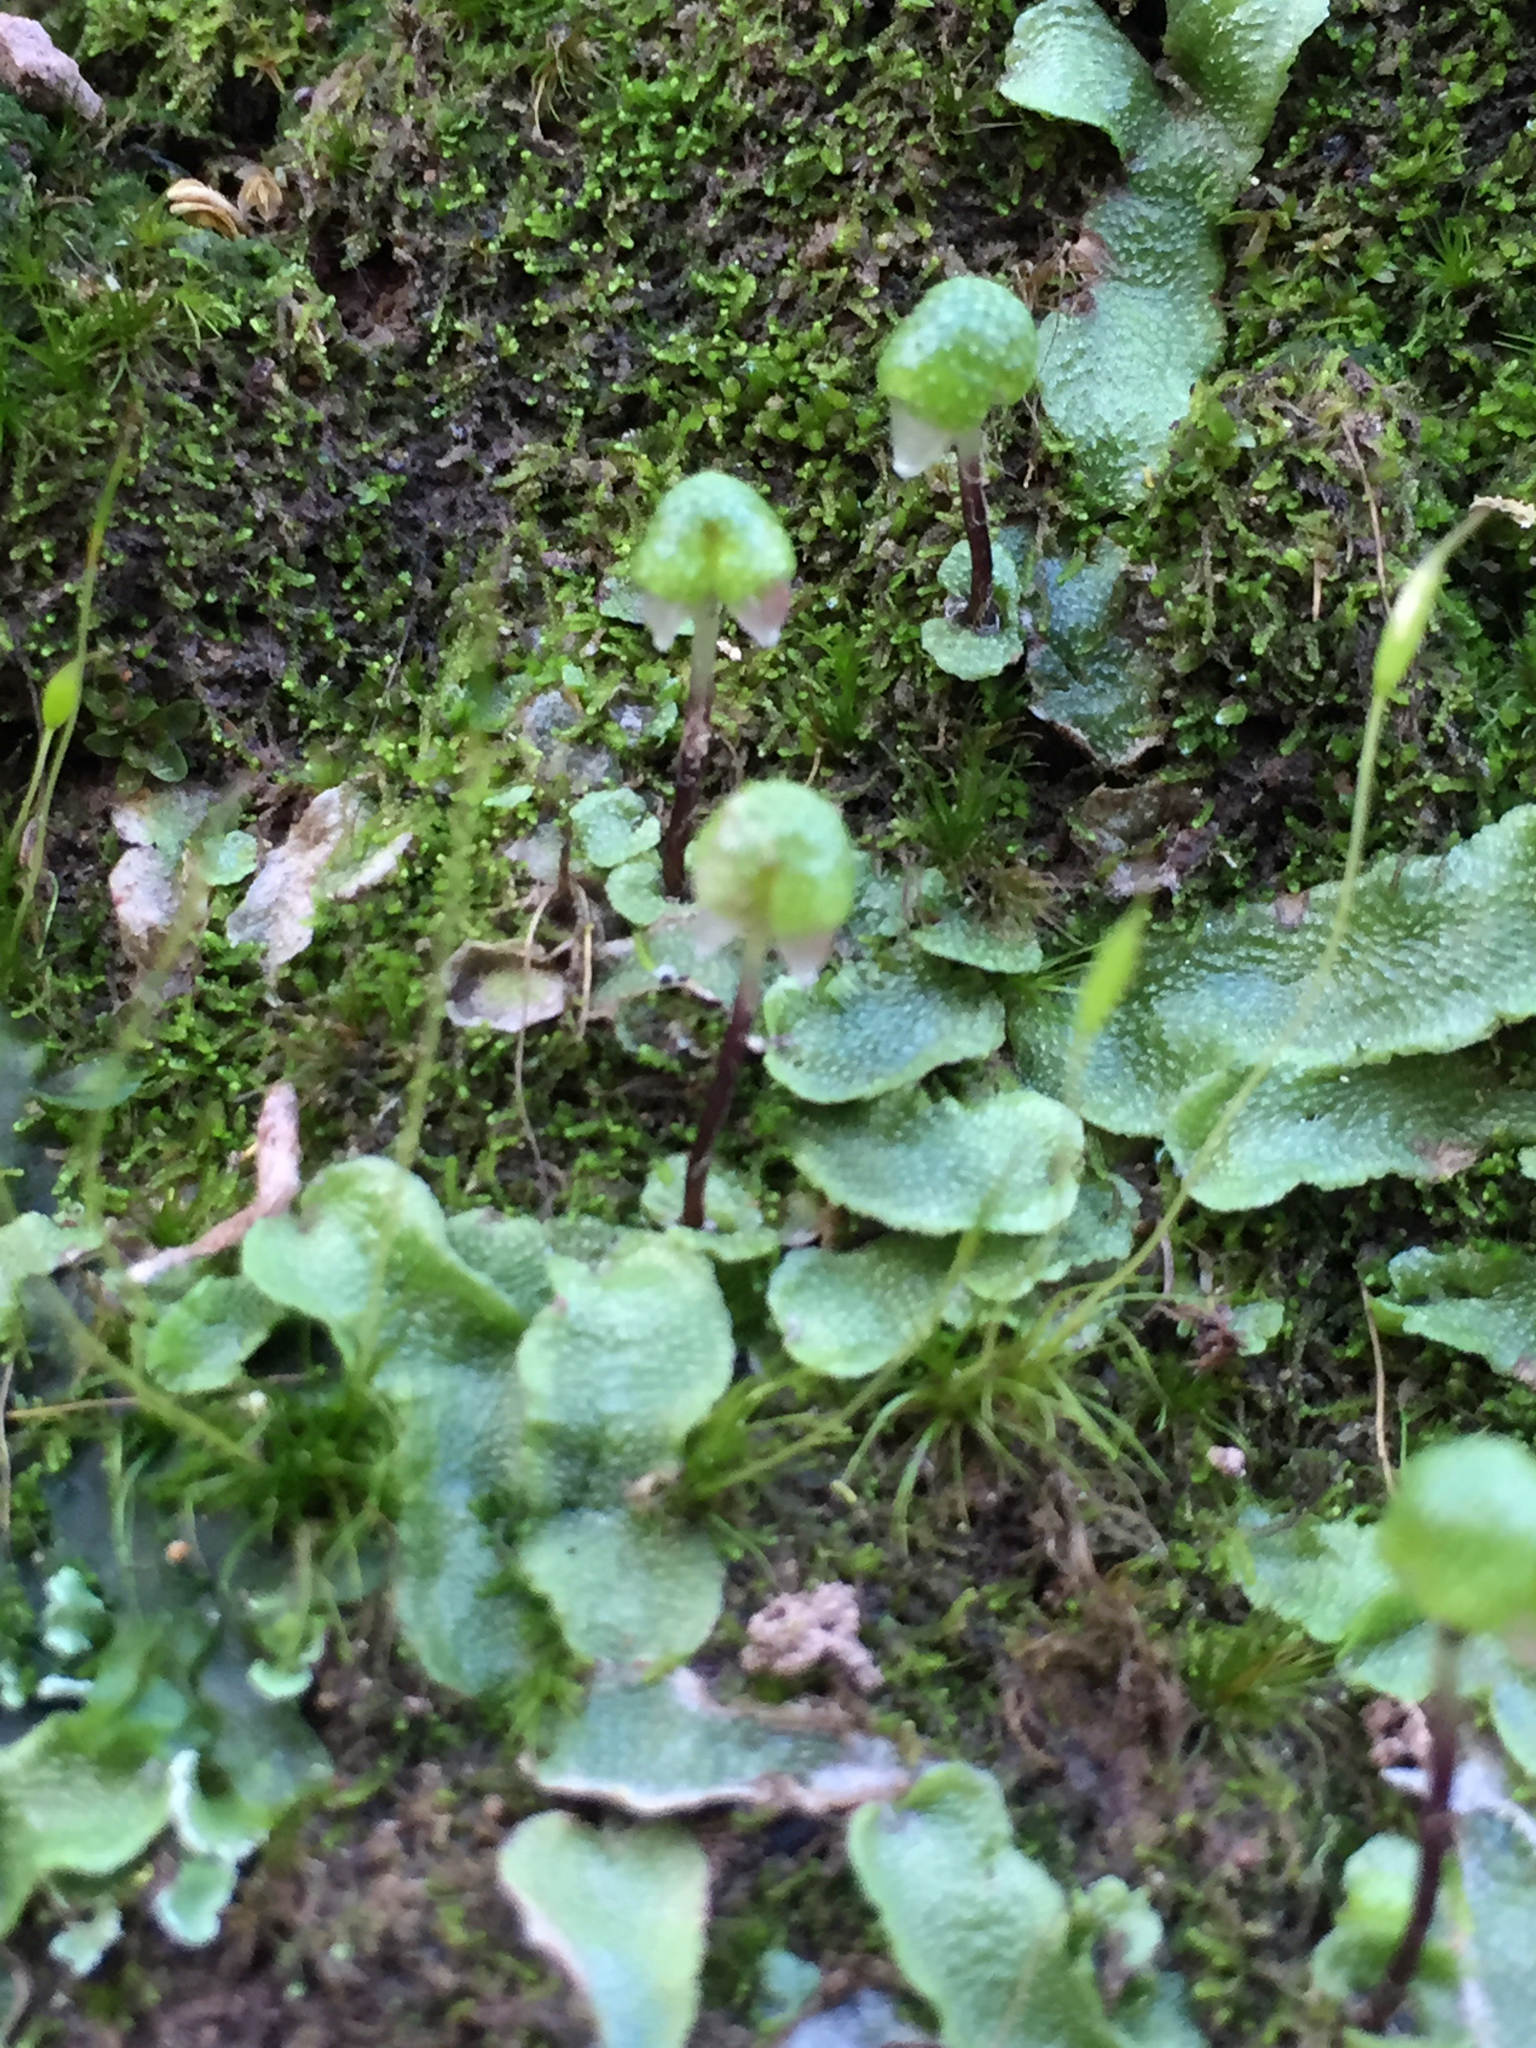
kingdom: Plantae
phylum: Marchantiophyta
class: Marchantiopsida
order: Marchantiales
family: Aytoniaceae
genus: Asterella
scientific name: Asterella californica
